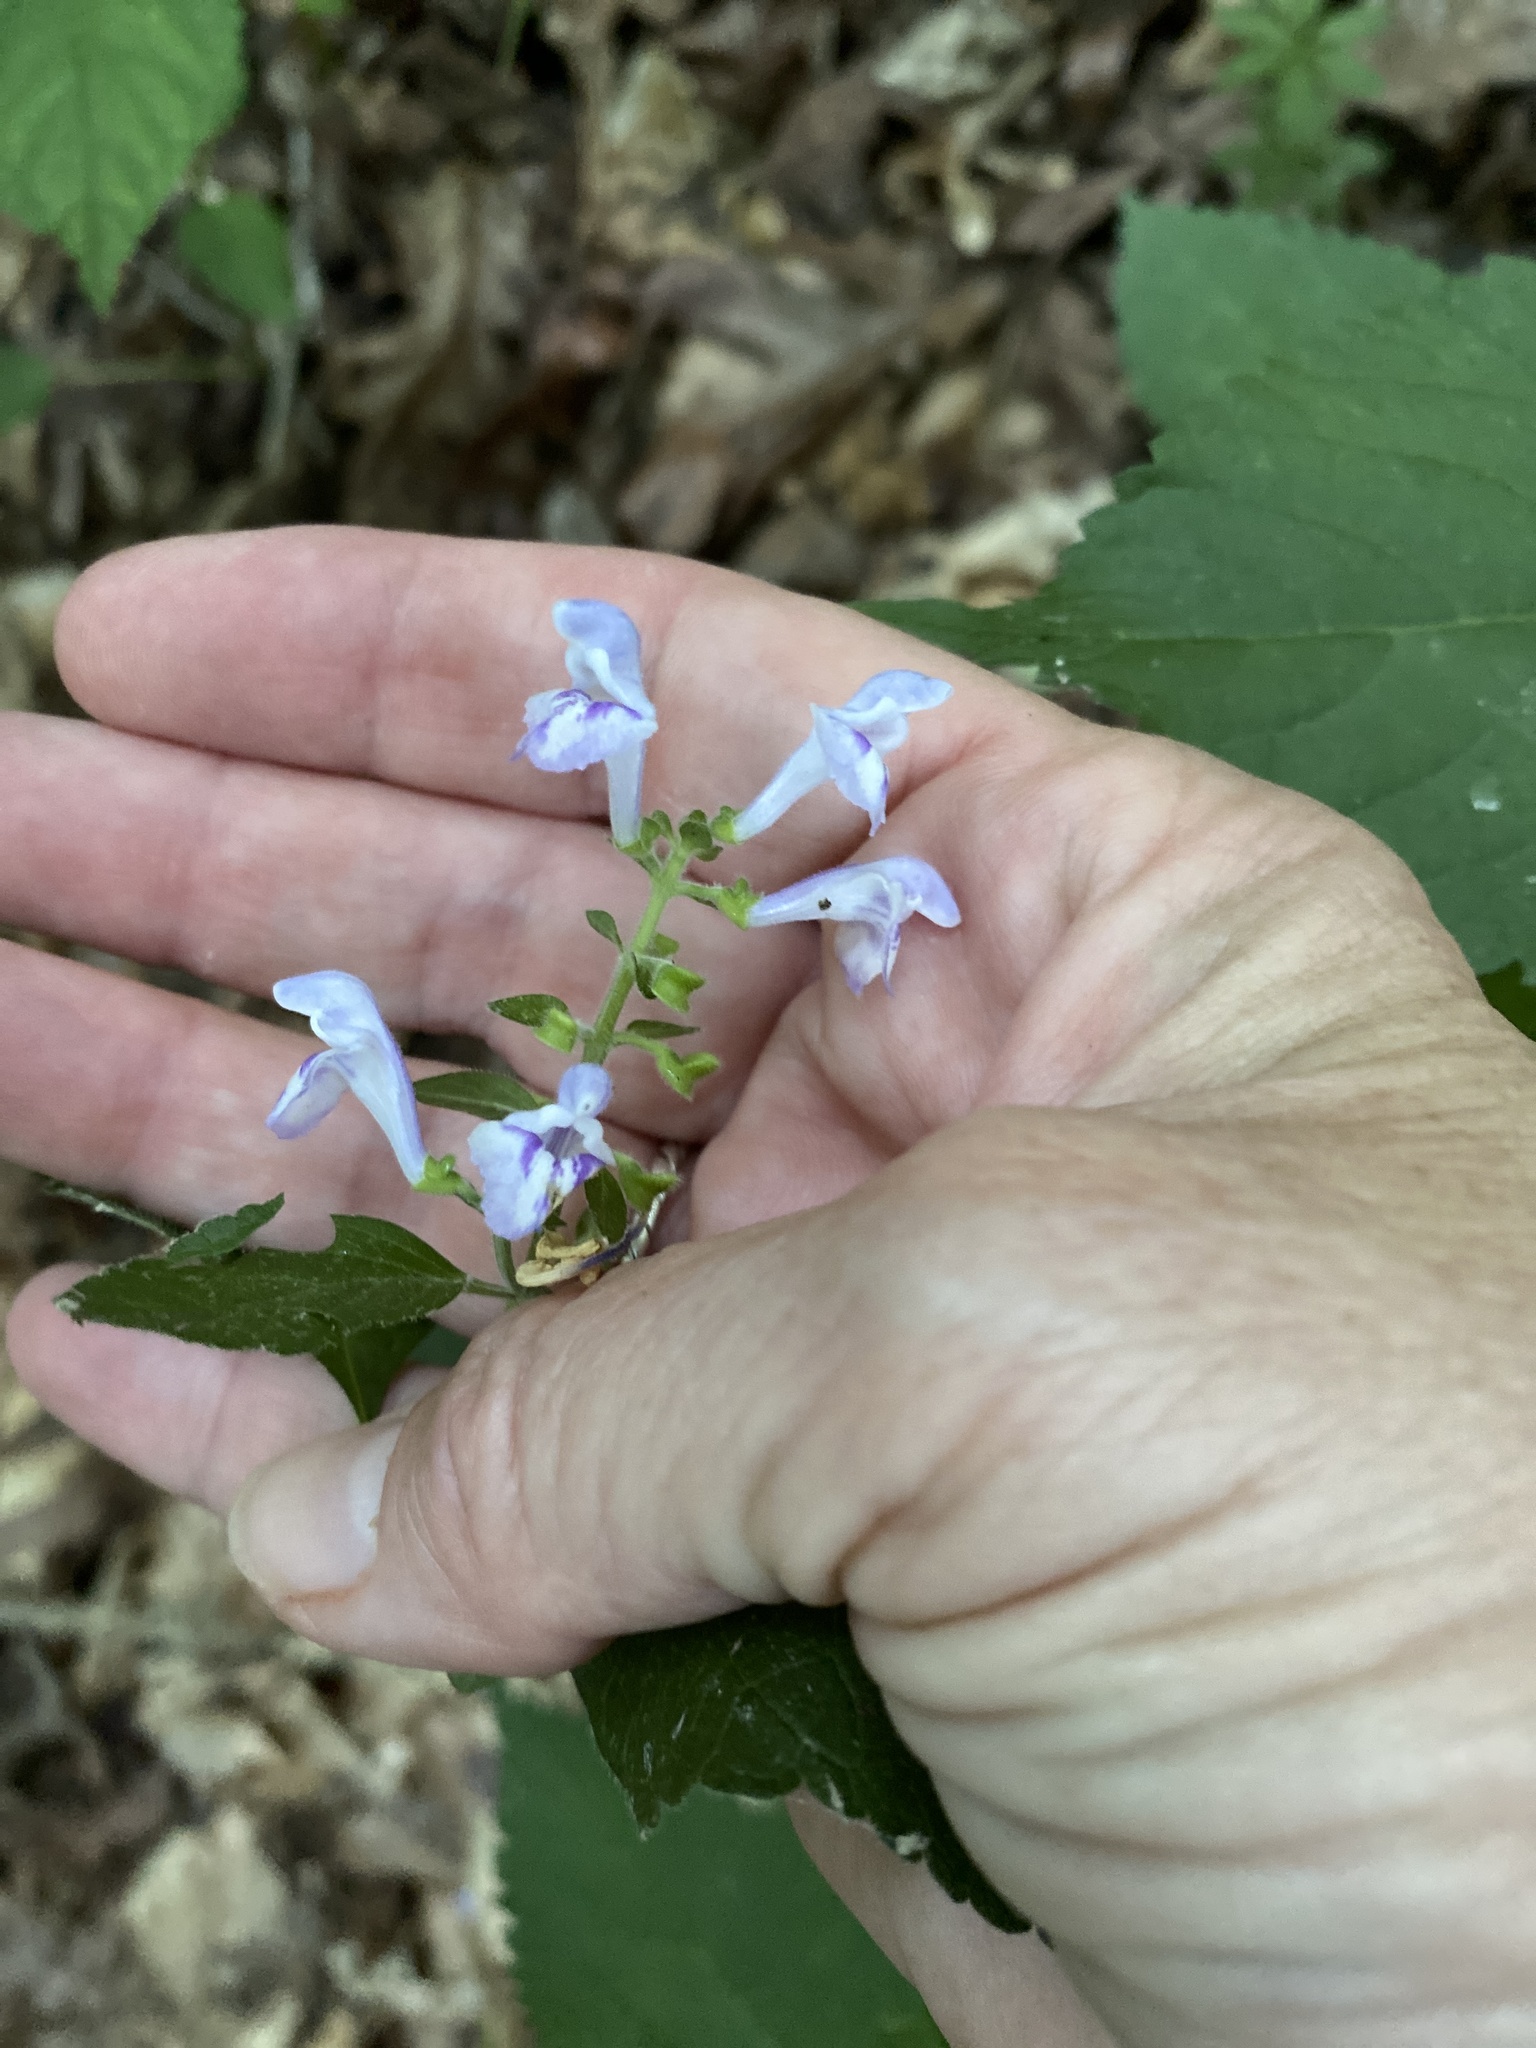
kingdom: Plantae
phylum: Tracheophyta
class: Magnoliopsida
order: Lamiales
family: Lamiaceae
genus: Scutellaria
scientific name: Scutellaria elliptica
